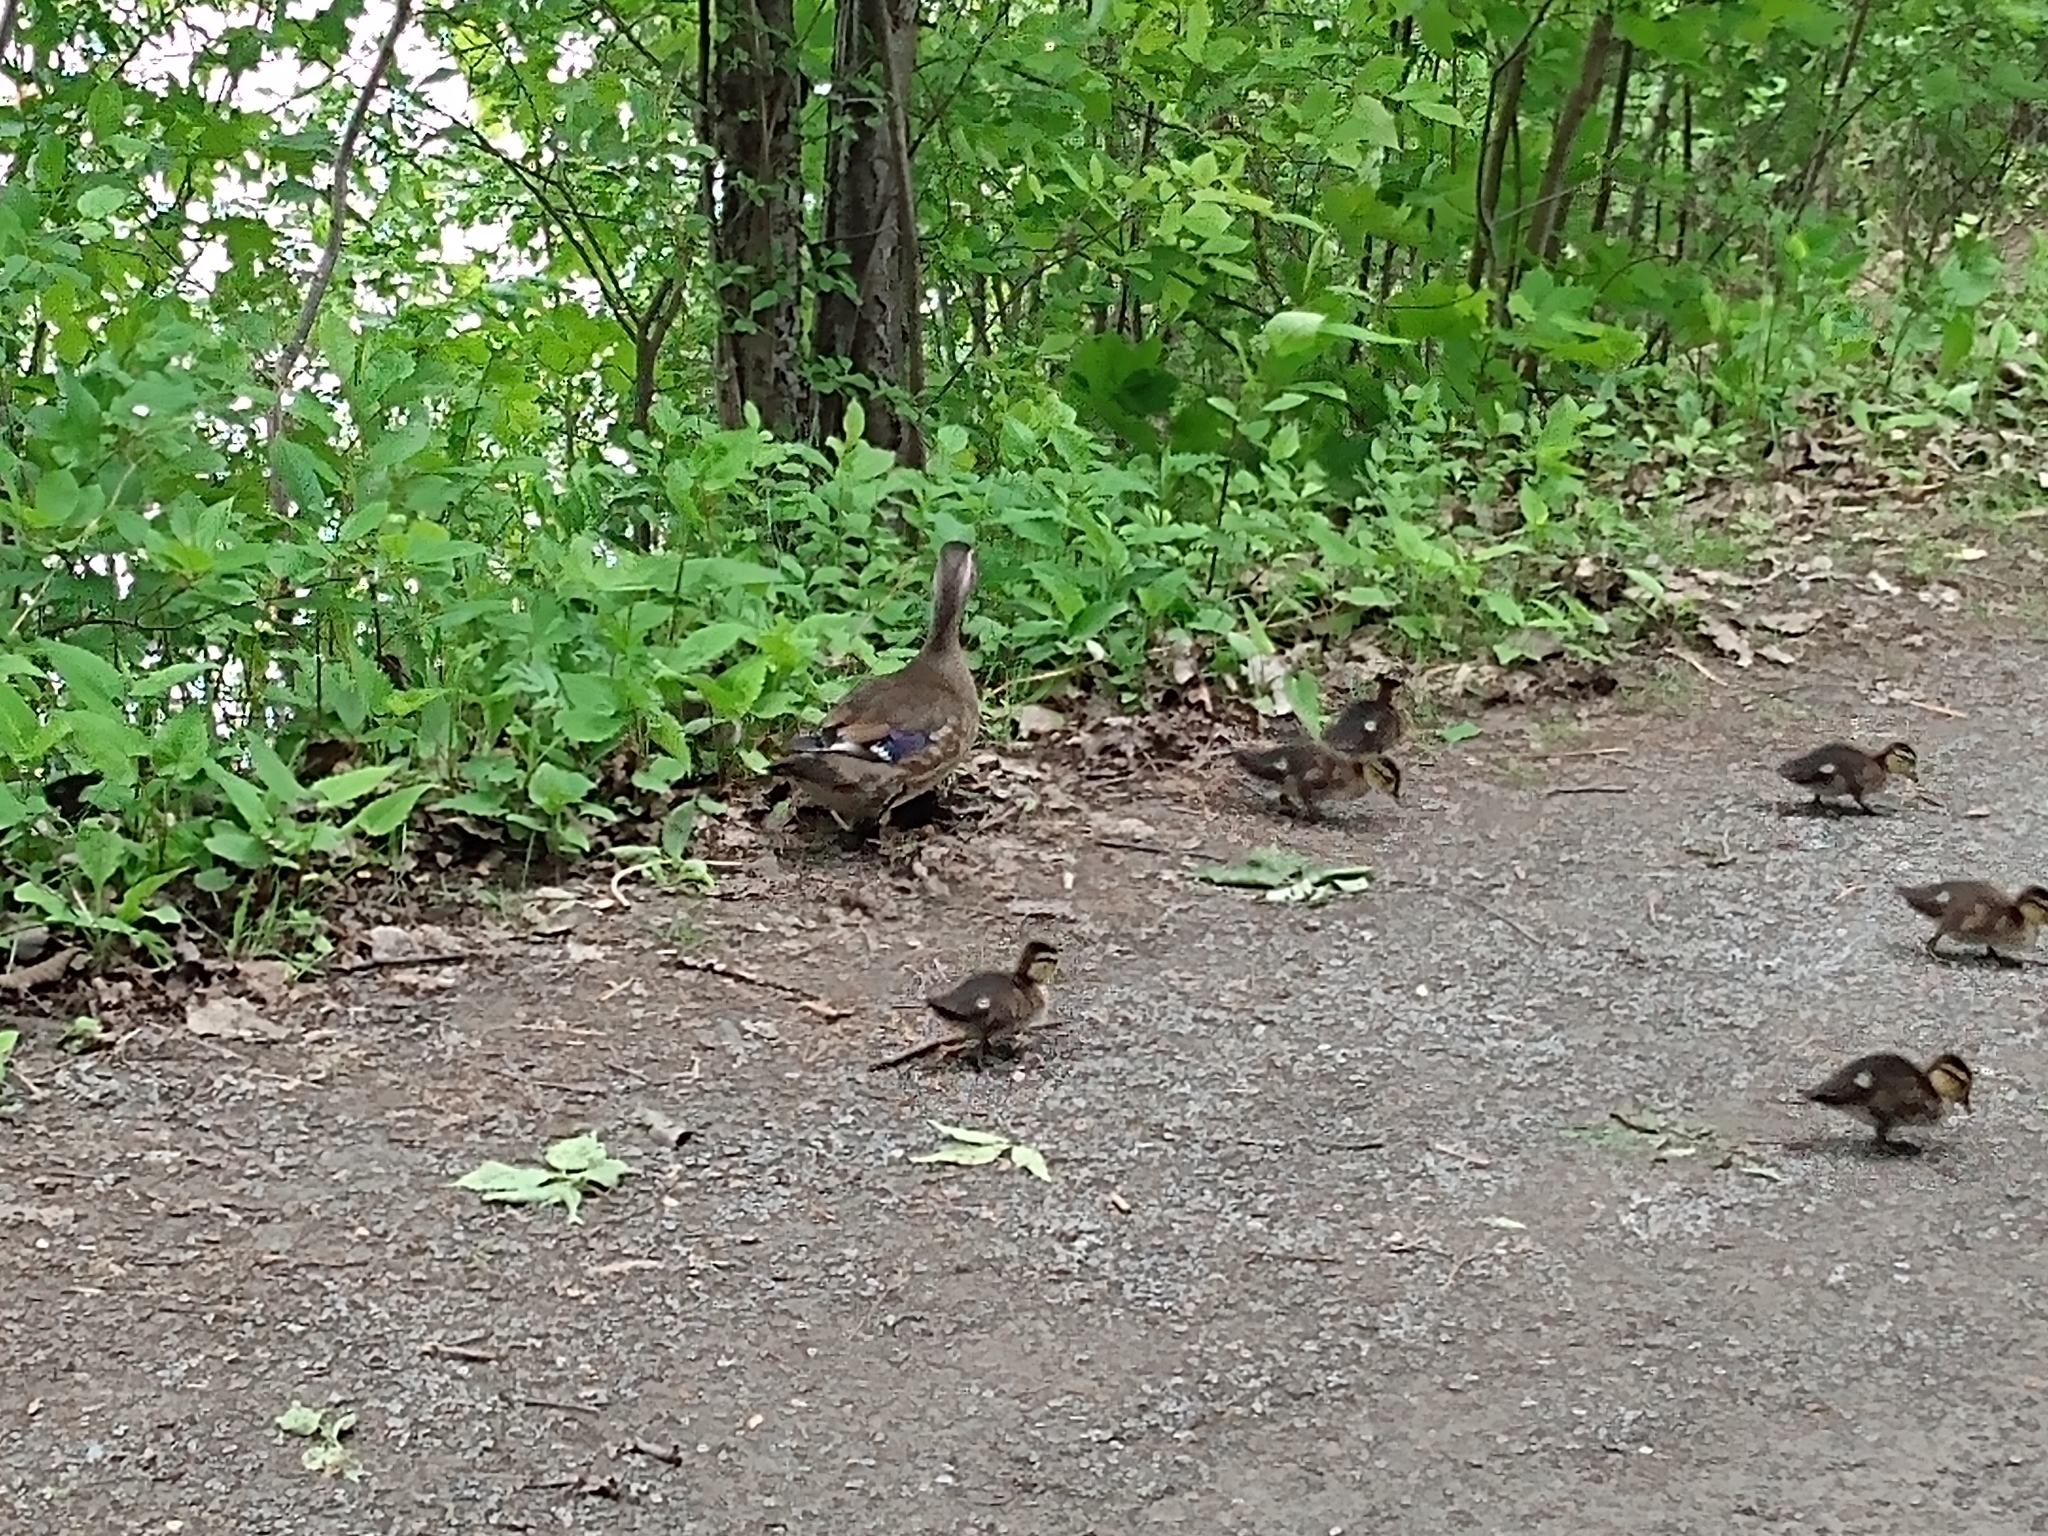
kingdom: Animalia
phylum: Chordata
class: Aves
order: Anseriformes
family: Anatidae
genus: Aix
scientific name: Aix sponsa
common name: Wood duck
